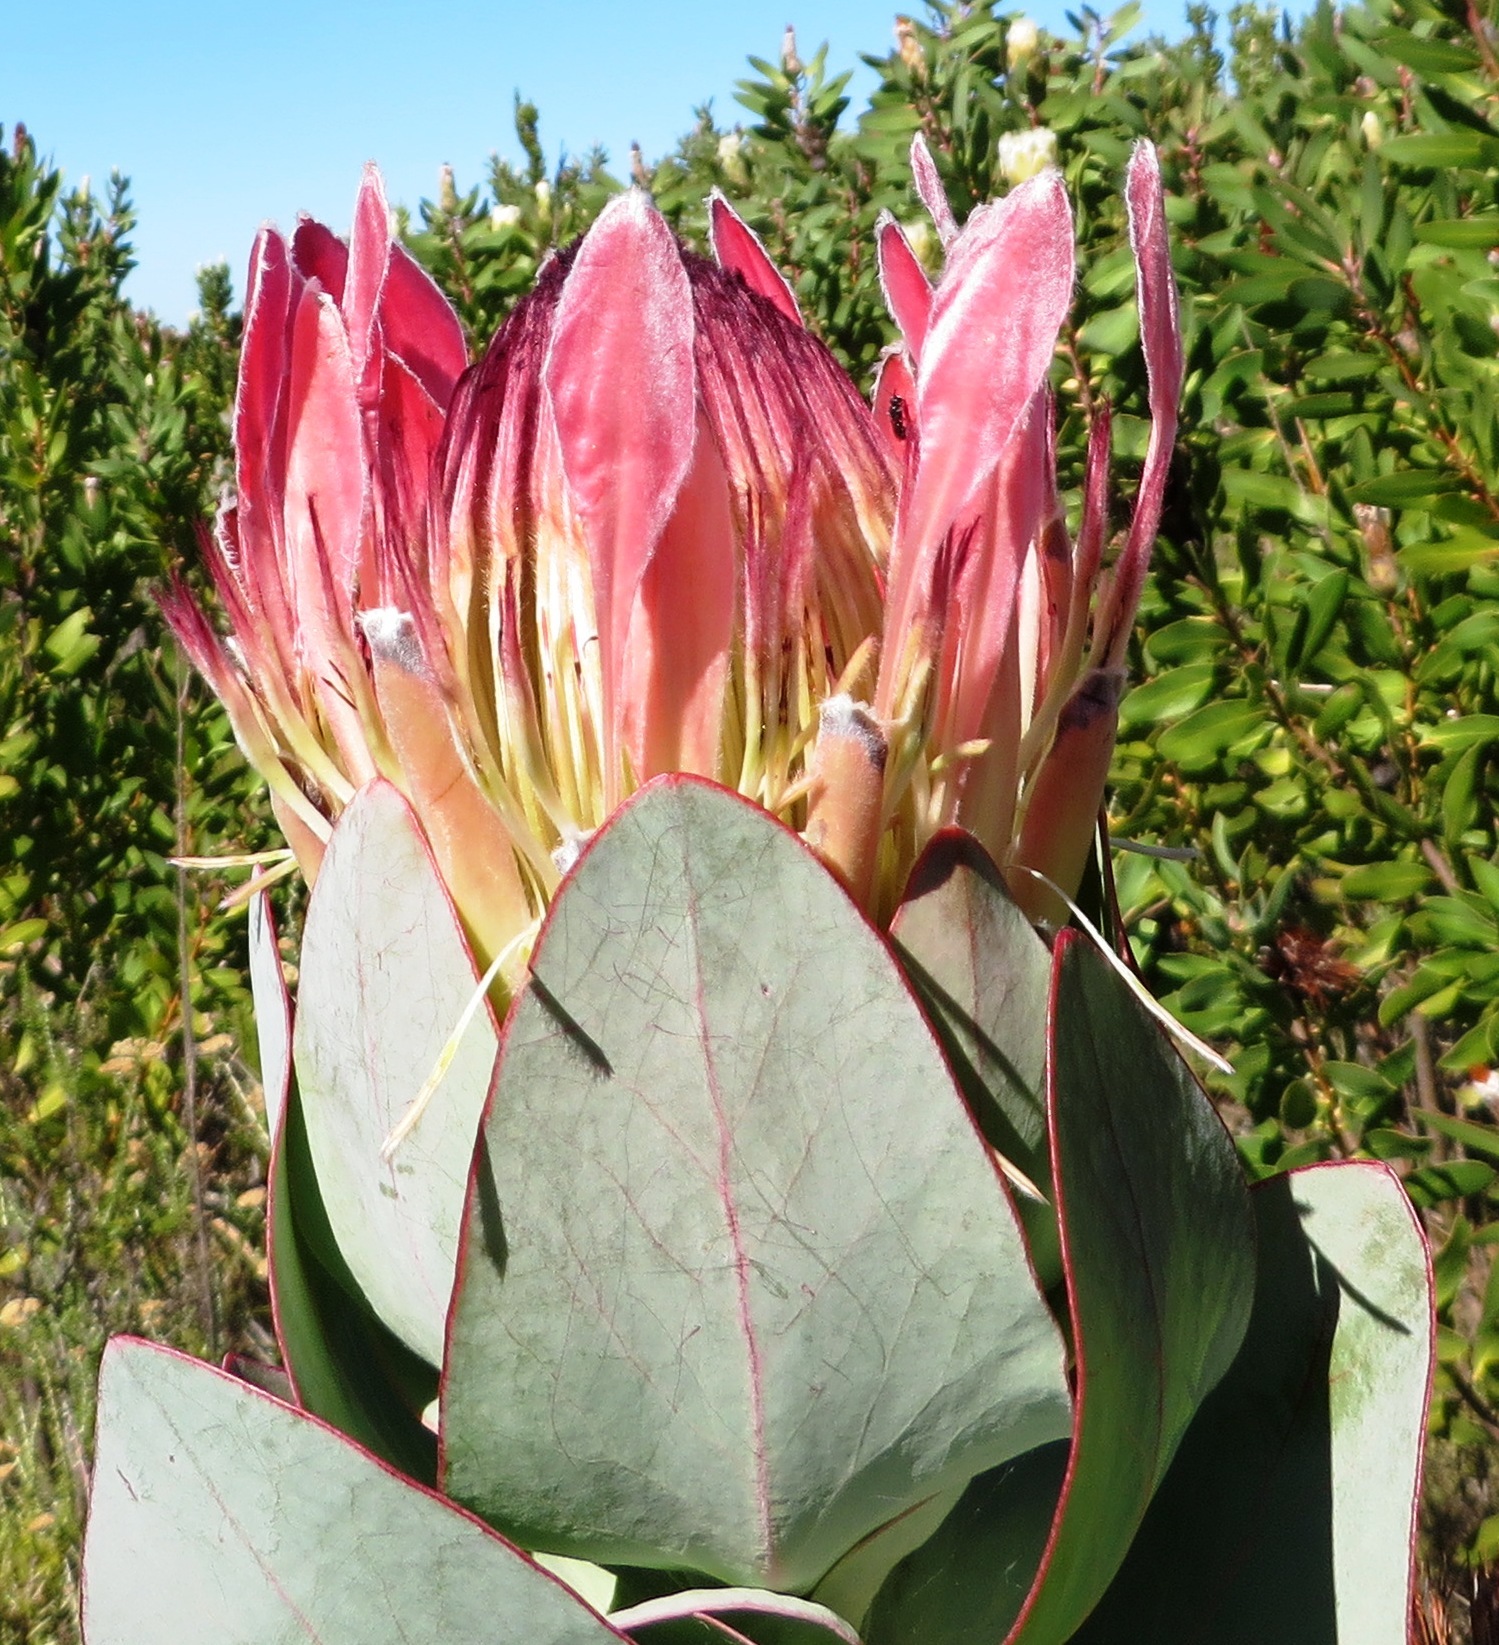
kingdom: Plantae
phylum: Tracheophyta
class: Magnoliopsida
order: Proteales
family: Proteaceae
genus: Protea
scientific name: Protea eximia
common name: Broad-leaved sugarbush
